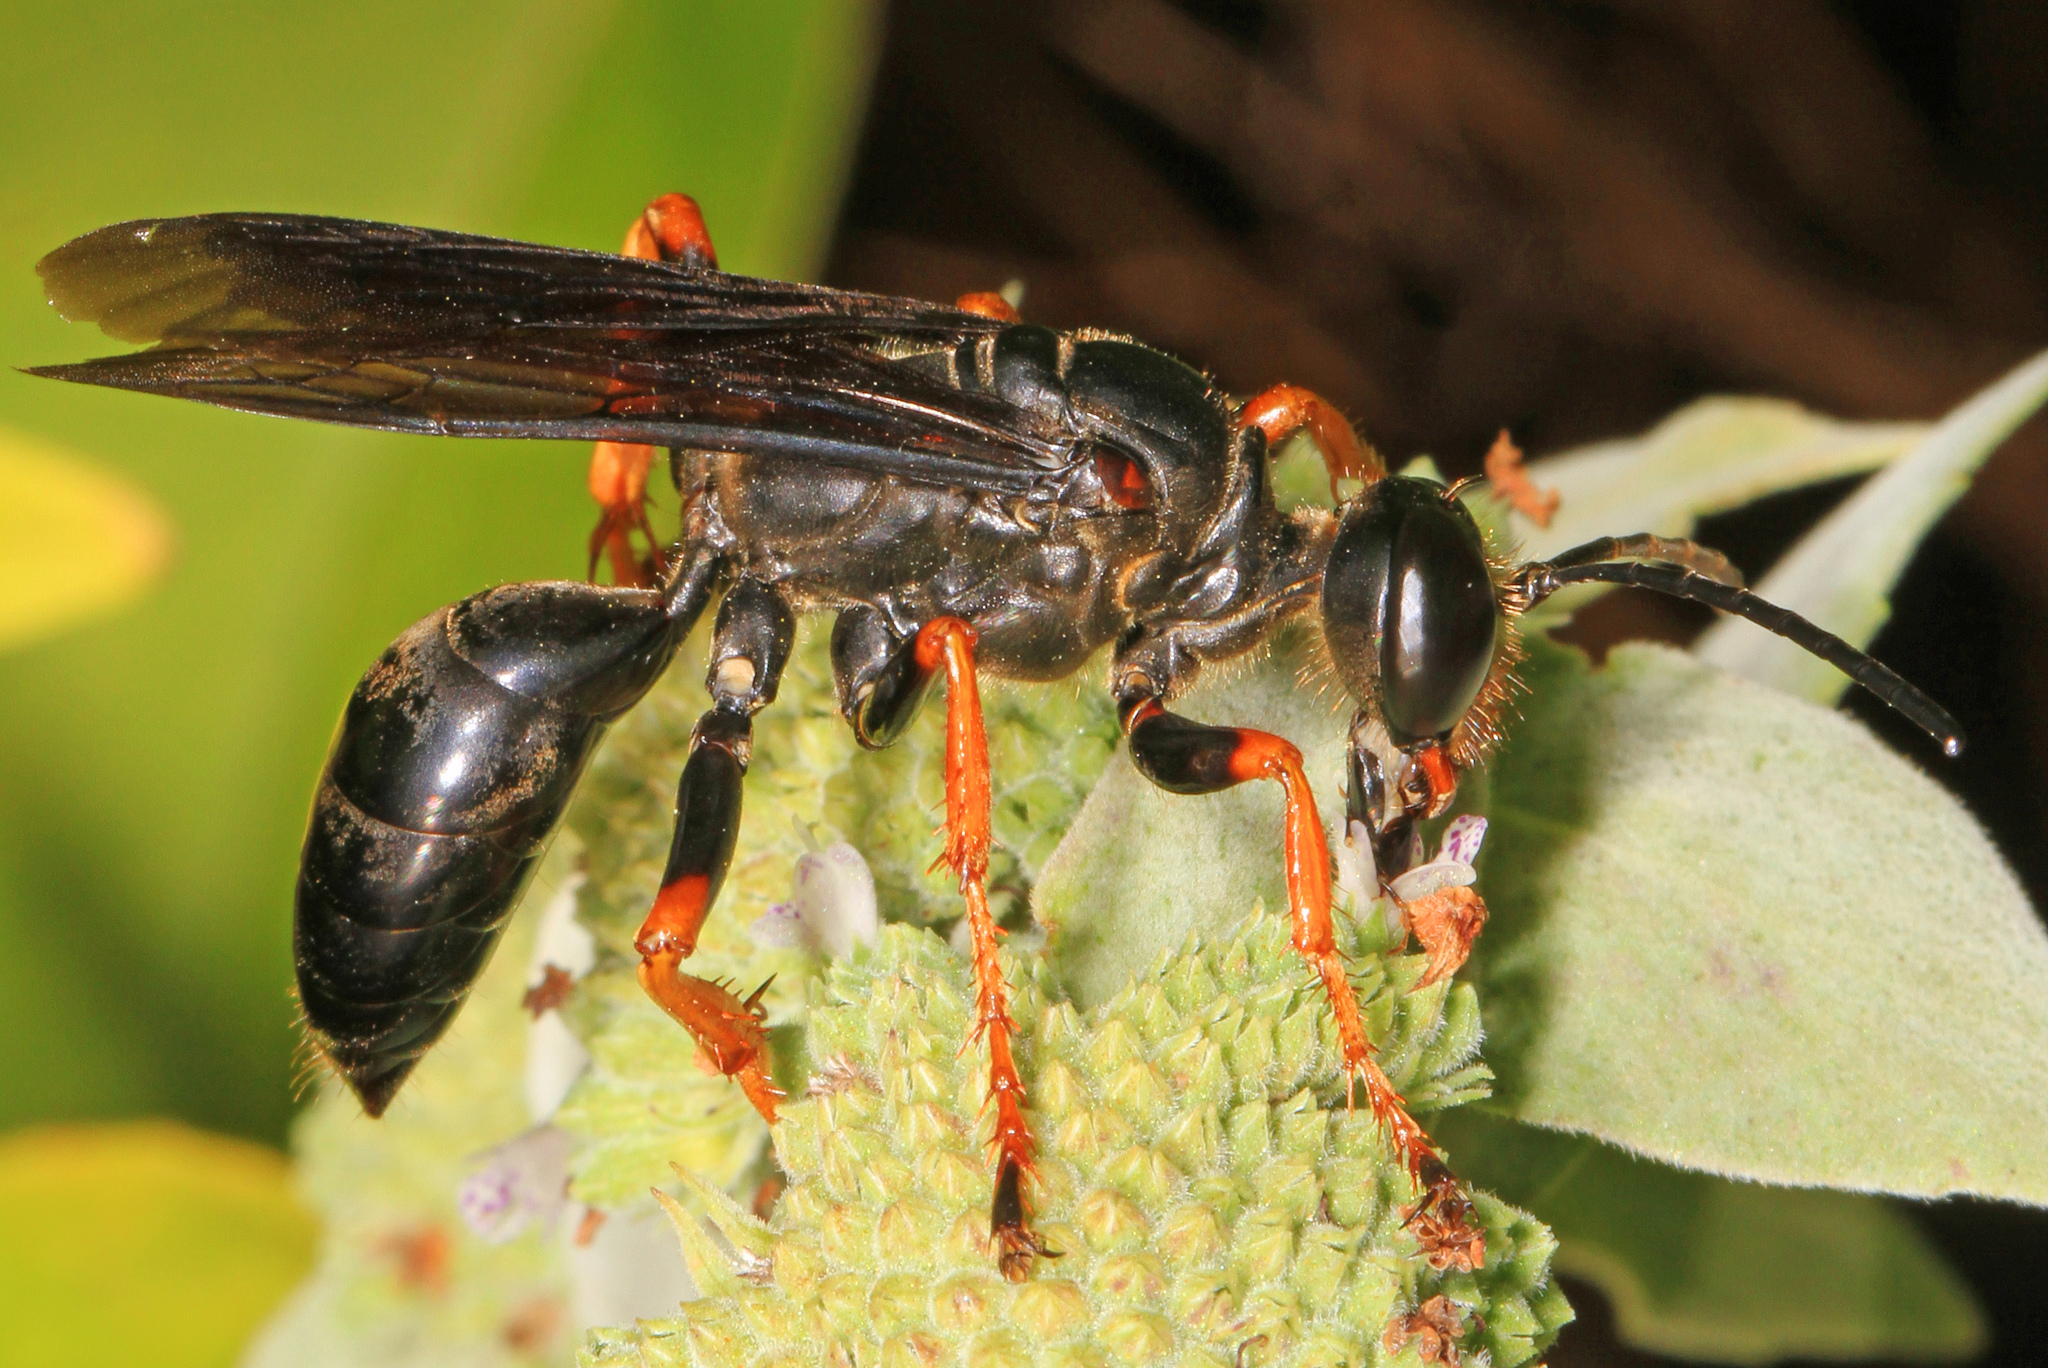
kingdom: Animalia
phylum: Arthropoda
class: Insecta
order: Hymenoptera
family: Sphecidae
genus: Sphex
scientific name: Sphex nudus
